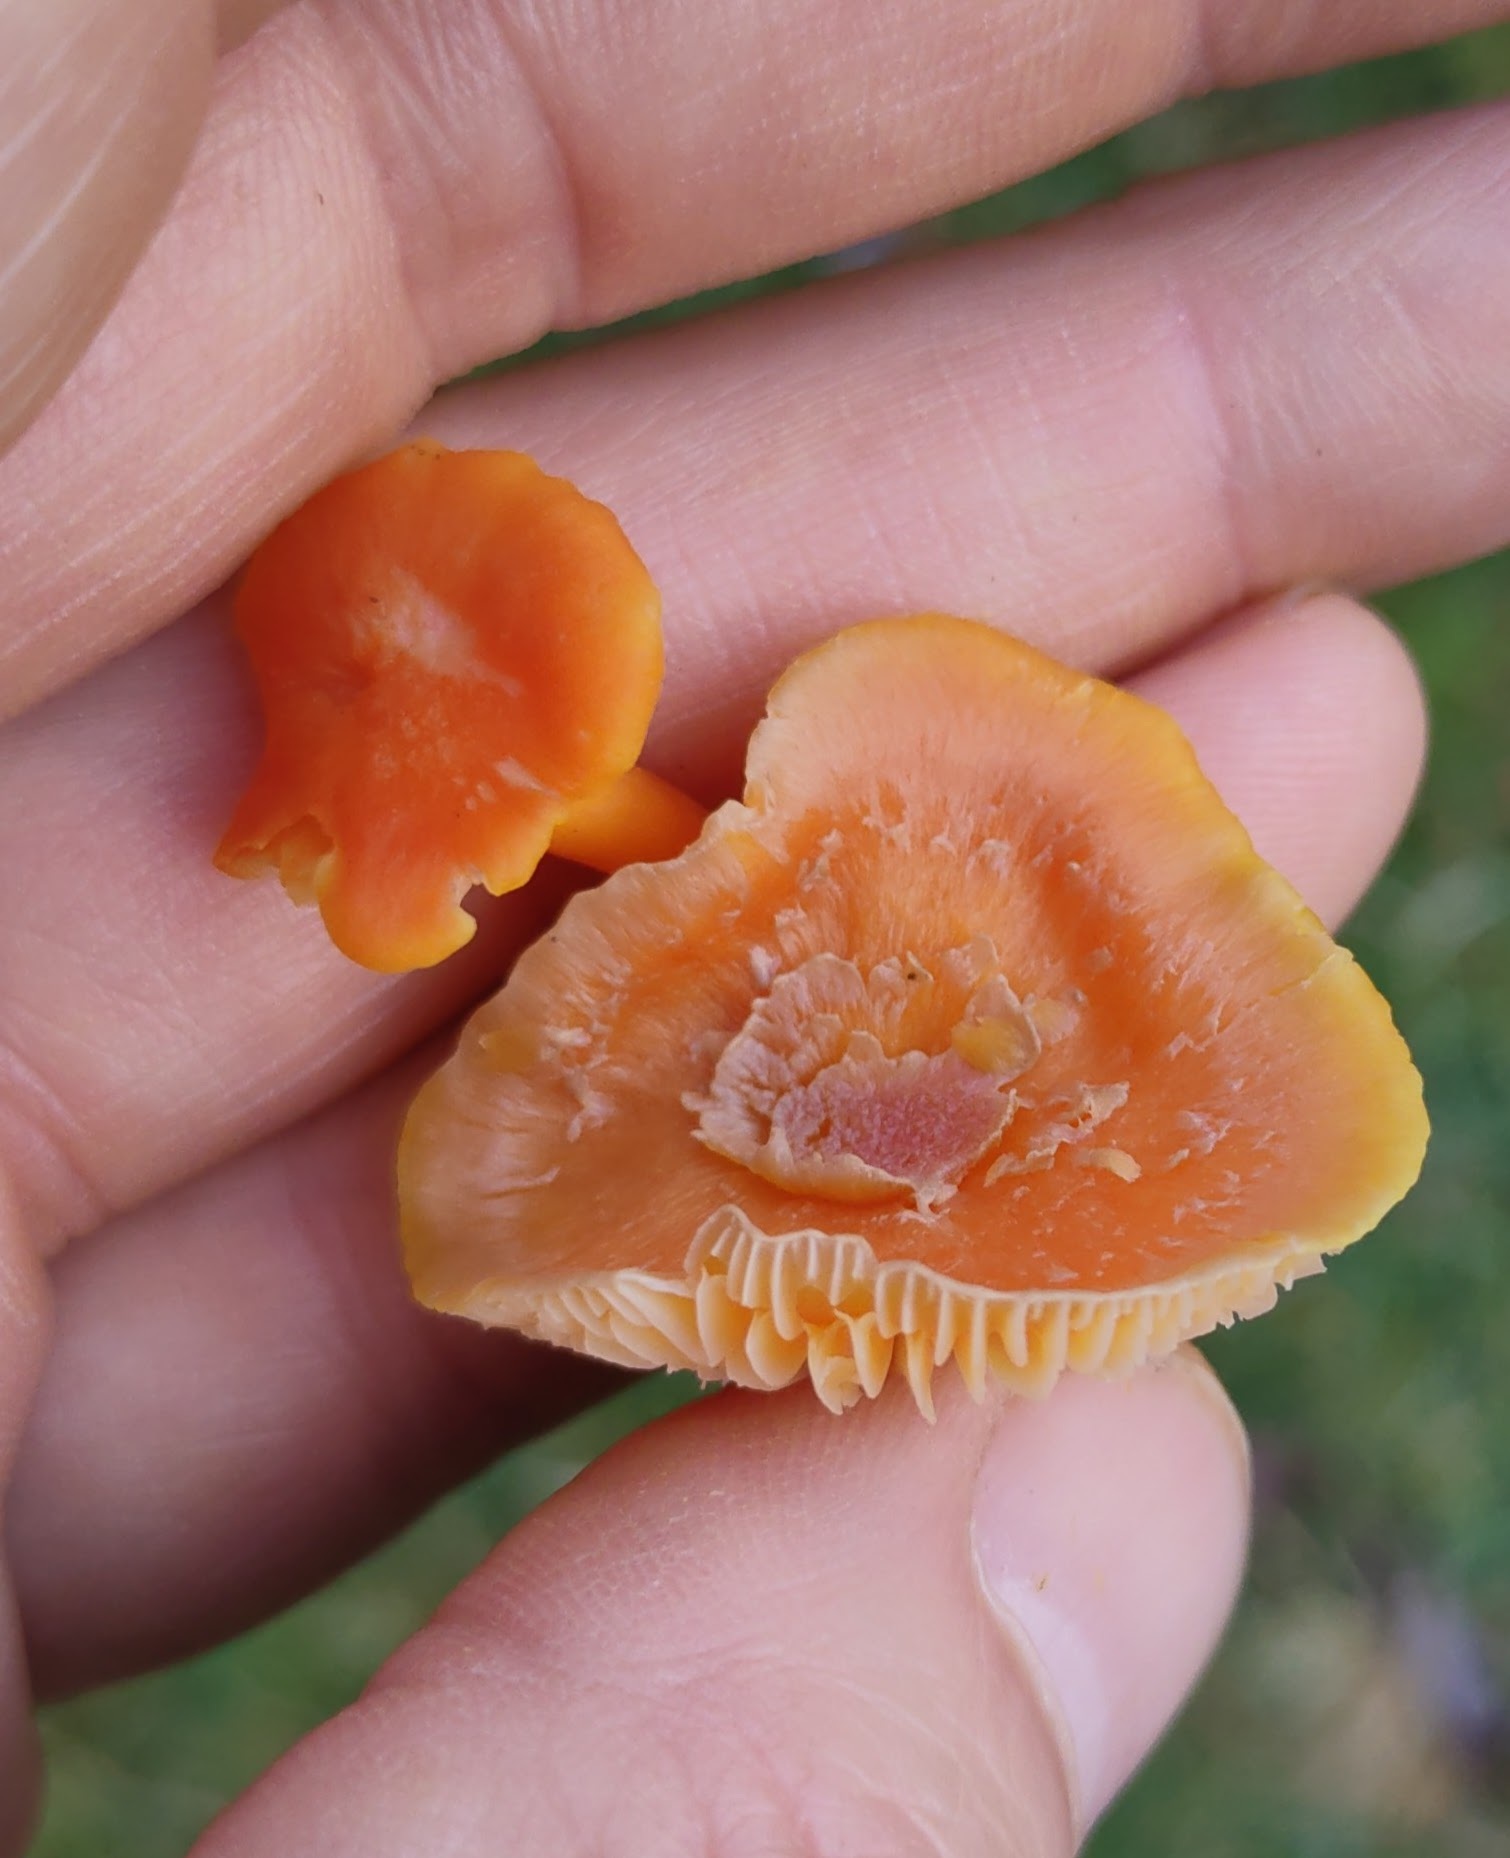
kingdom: Fungi
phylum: Basidiomycota
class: Agaricomycetes
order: Agaricales
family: Hygrophoraceae
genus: Hygrocybe
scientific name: Hygrocybe reidii
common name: Honey waxcap
